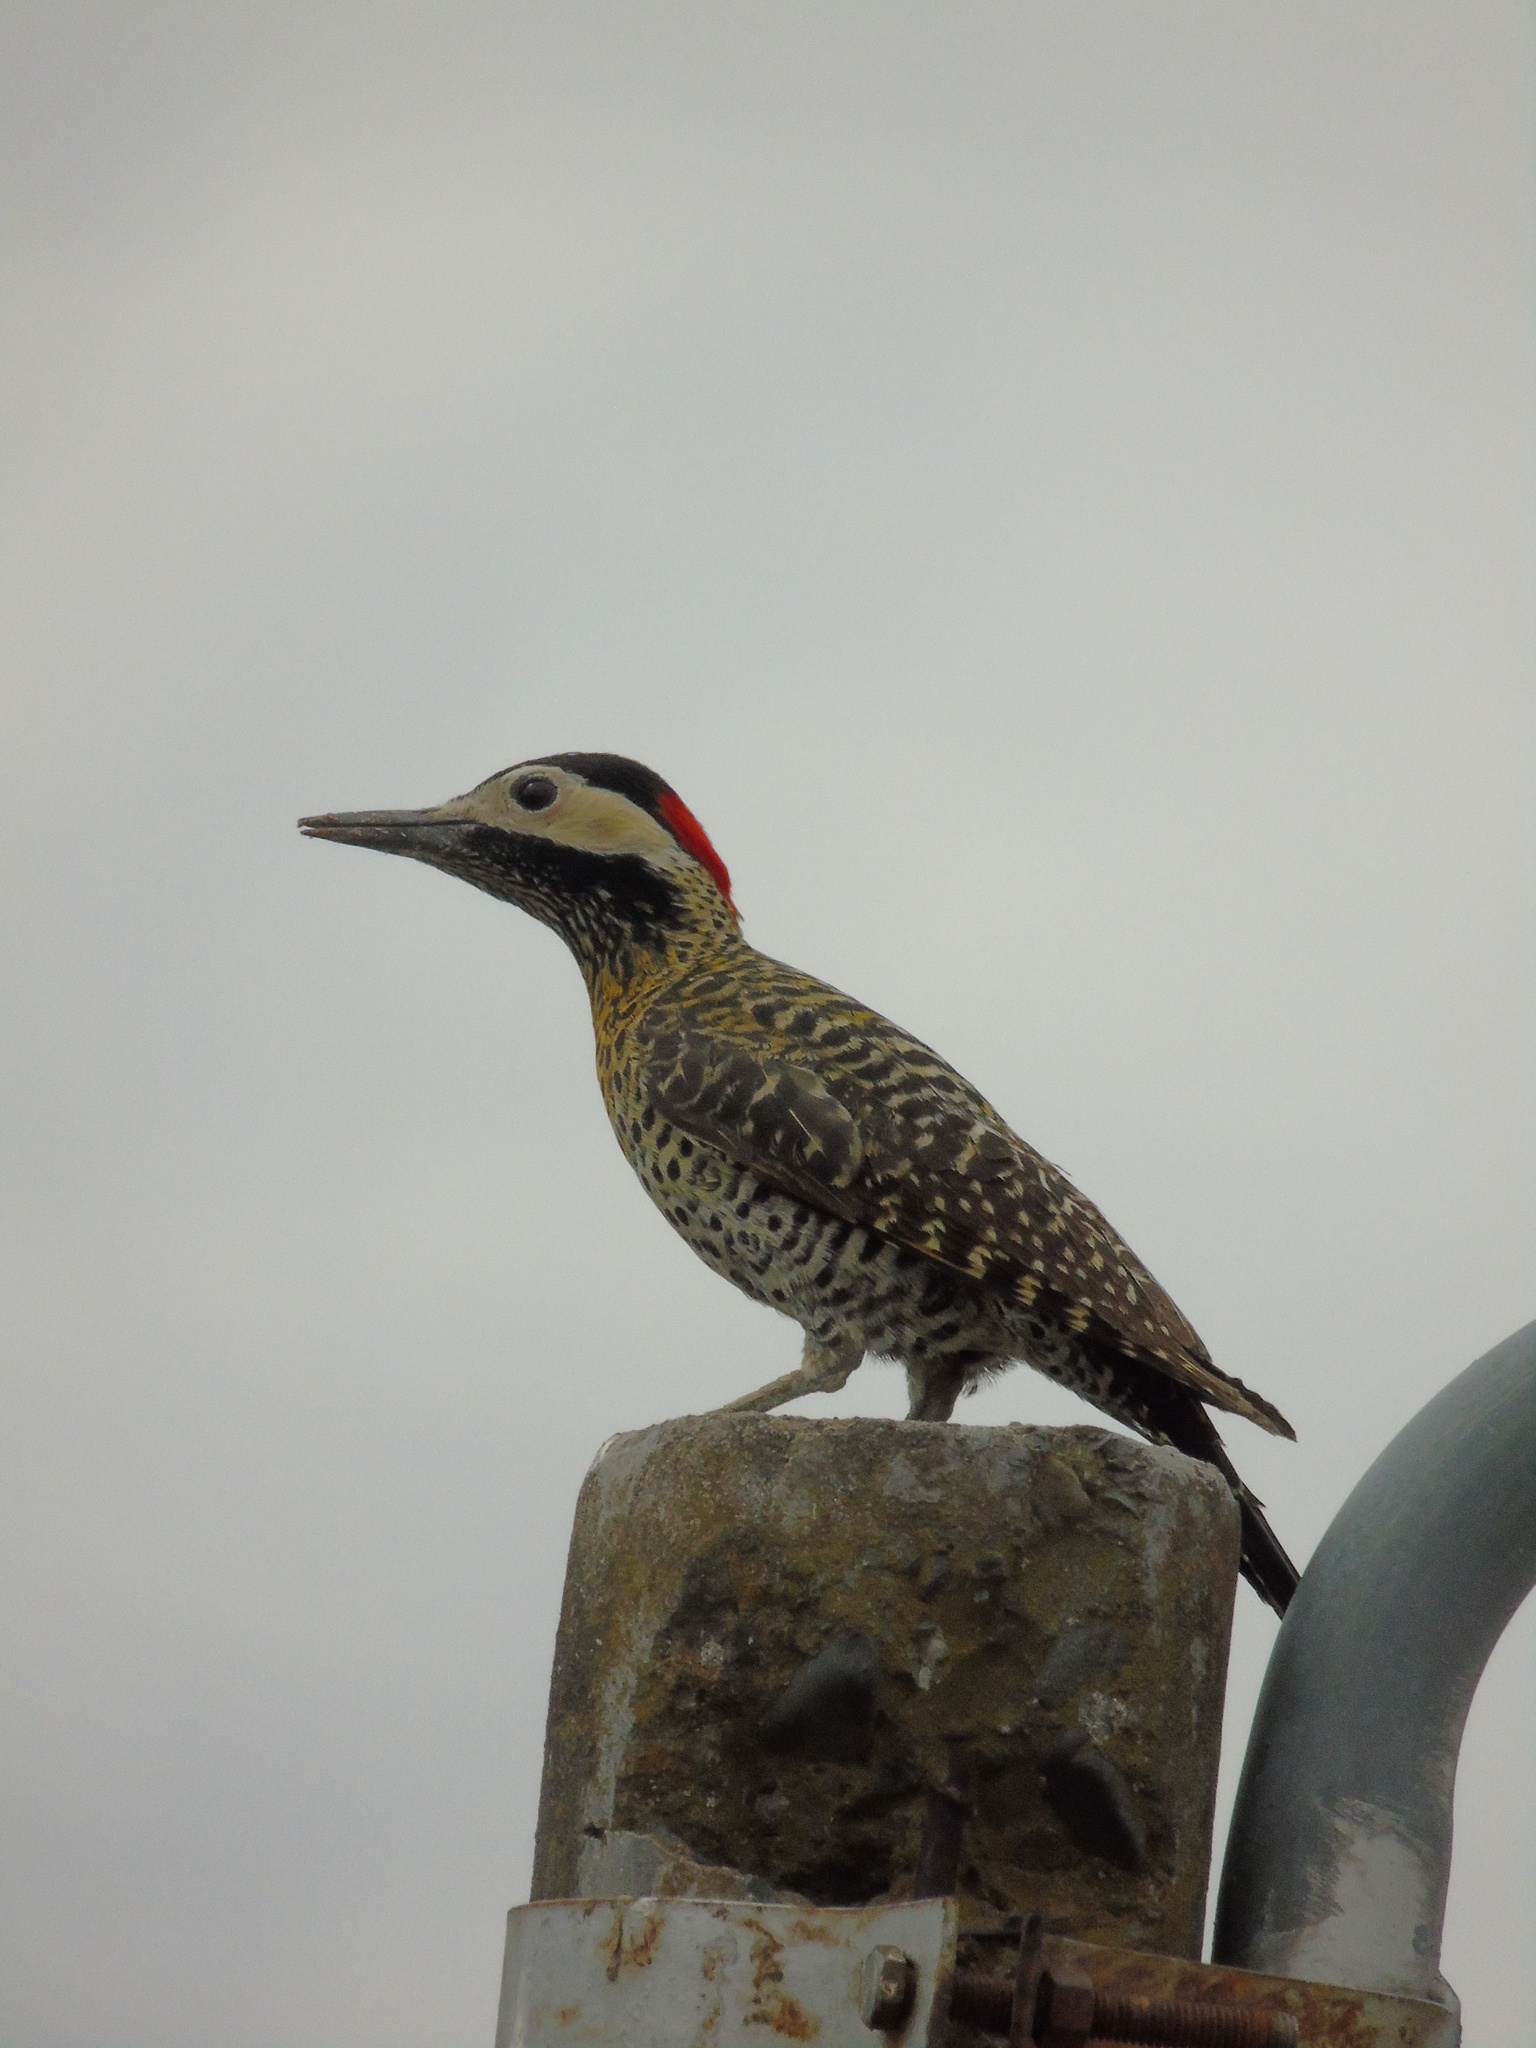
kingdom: Animalia
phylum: Chordata
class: Aves
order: Piciformes
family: Picidae
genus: Colaptes
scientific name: Colaptes melanochloros
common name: Green-barred woodpecker
